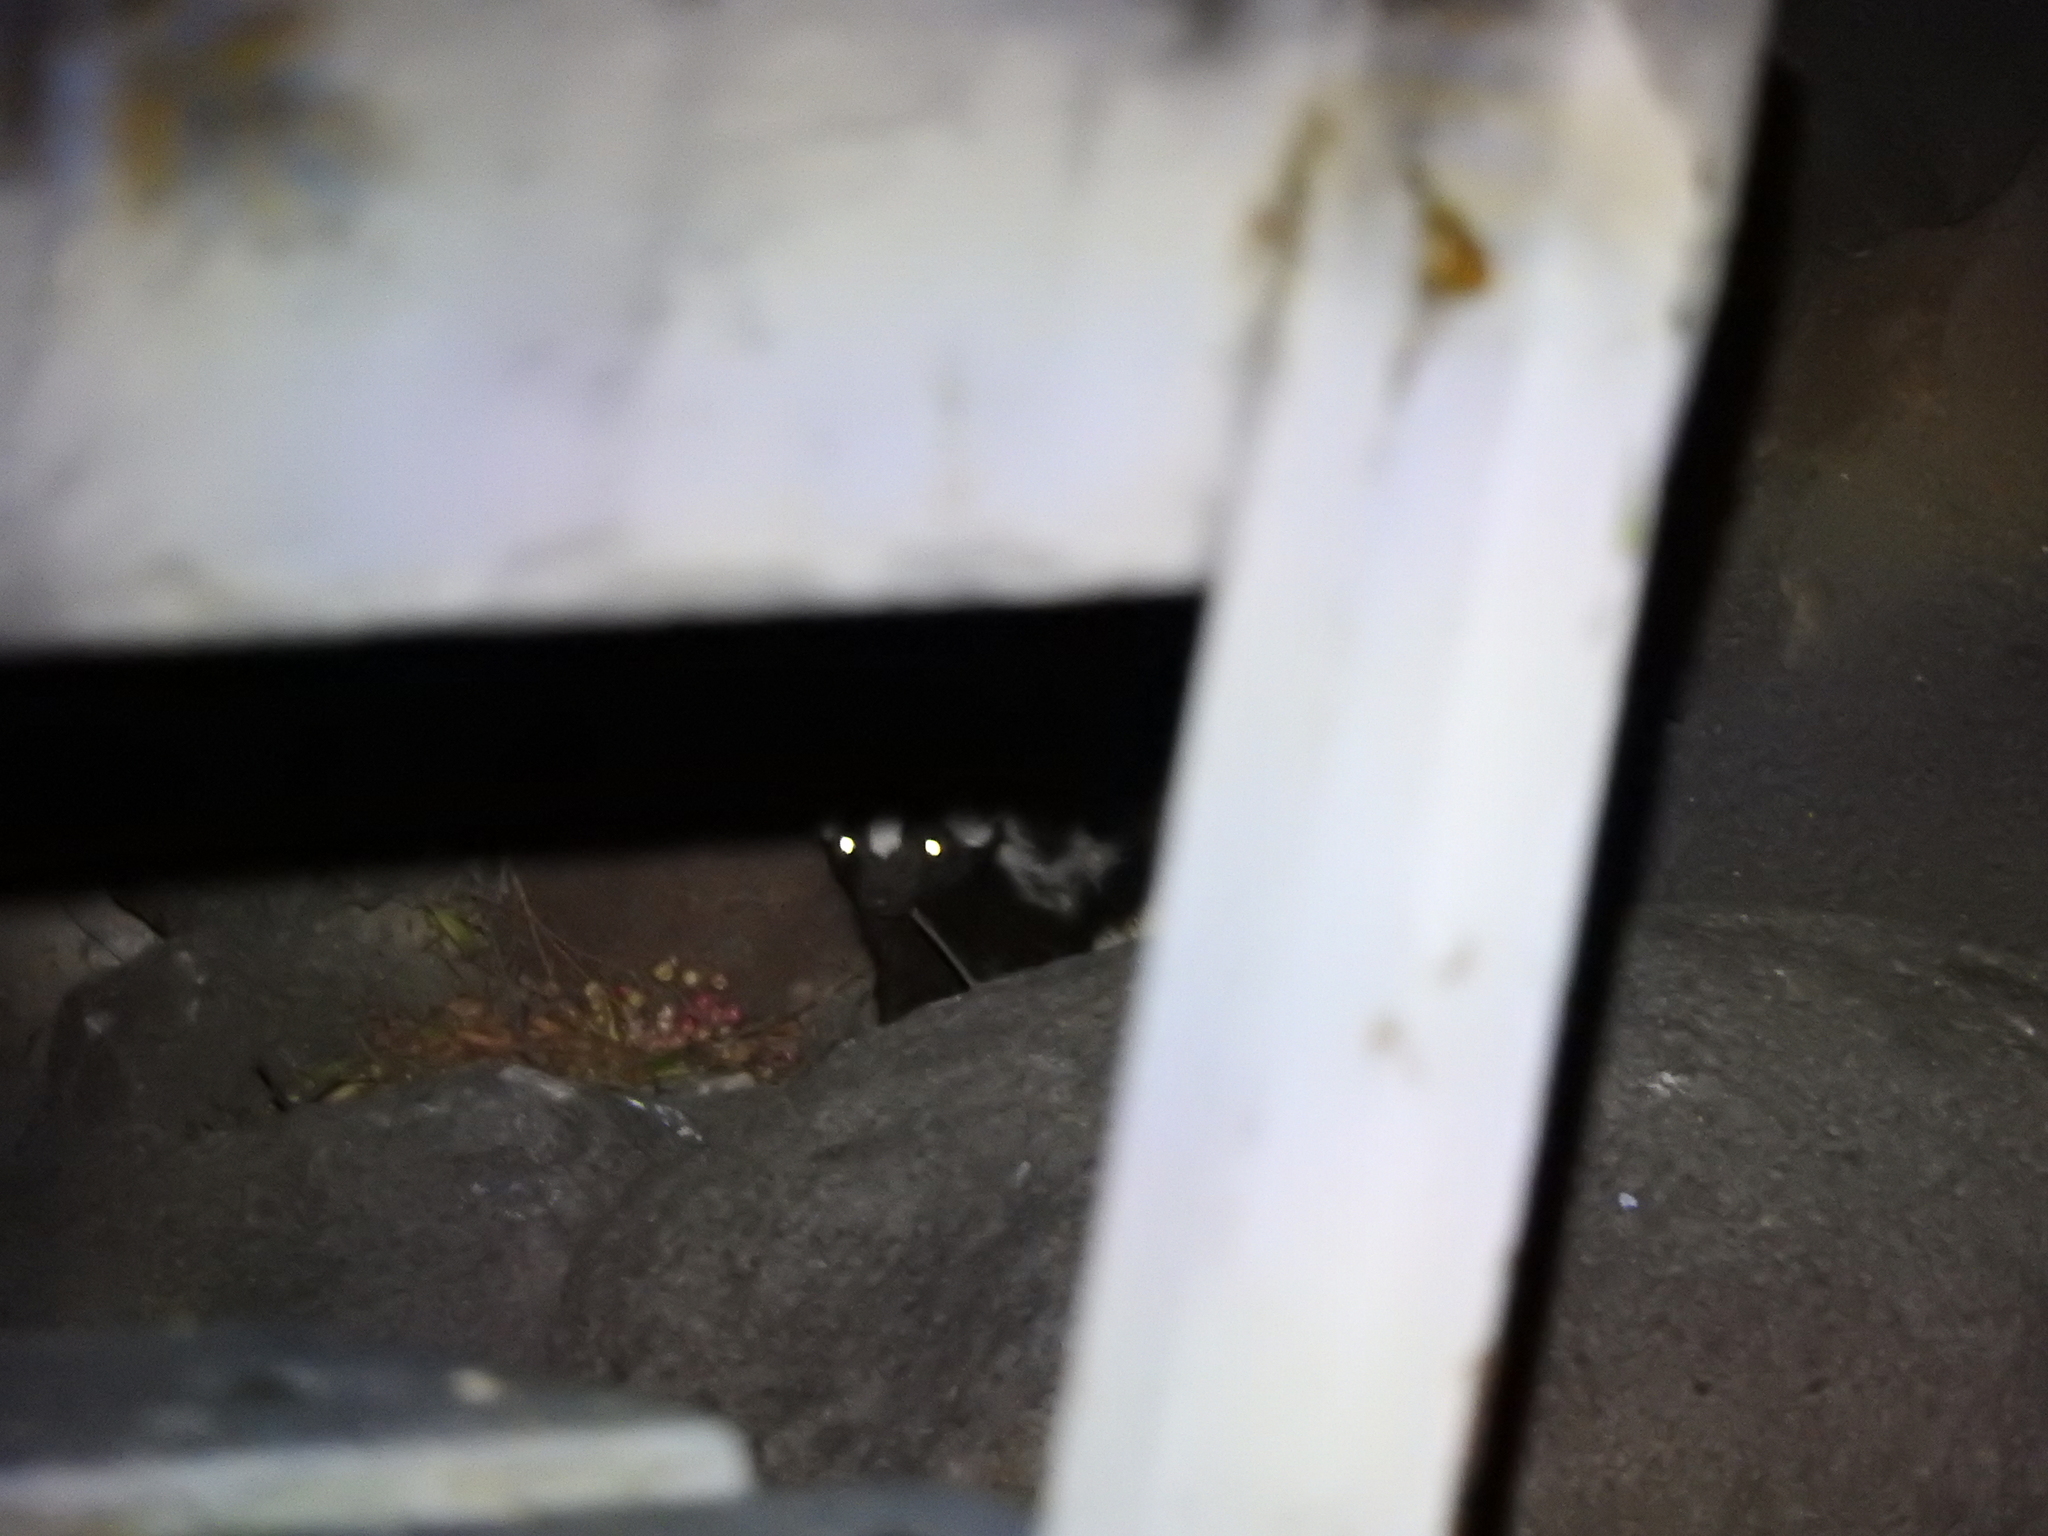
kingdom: Animalia
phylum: Chordata
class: Mammalia
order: Carnivora
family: Mephitidae
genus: Spilogale
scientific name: Spilogale angustifrons
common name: Southern spotted skunk
